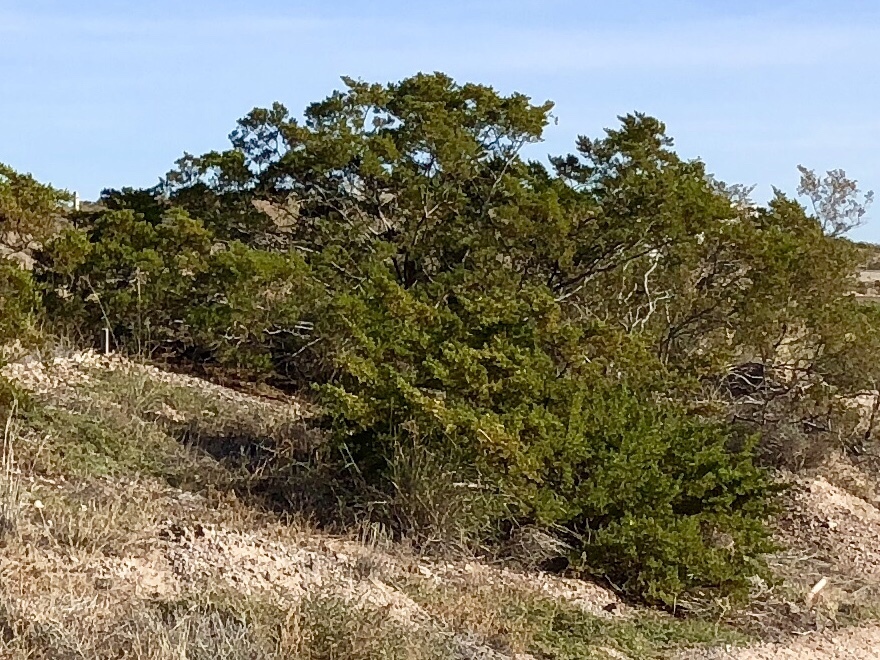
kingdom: Plantae
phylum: Tracheophyta
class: Magnoliopsida
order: Zygophyllales
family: Zygophyllaceae
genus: Larrea
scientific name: Larrea tridentata
